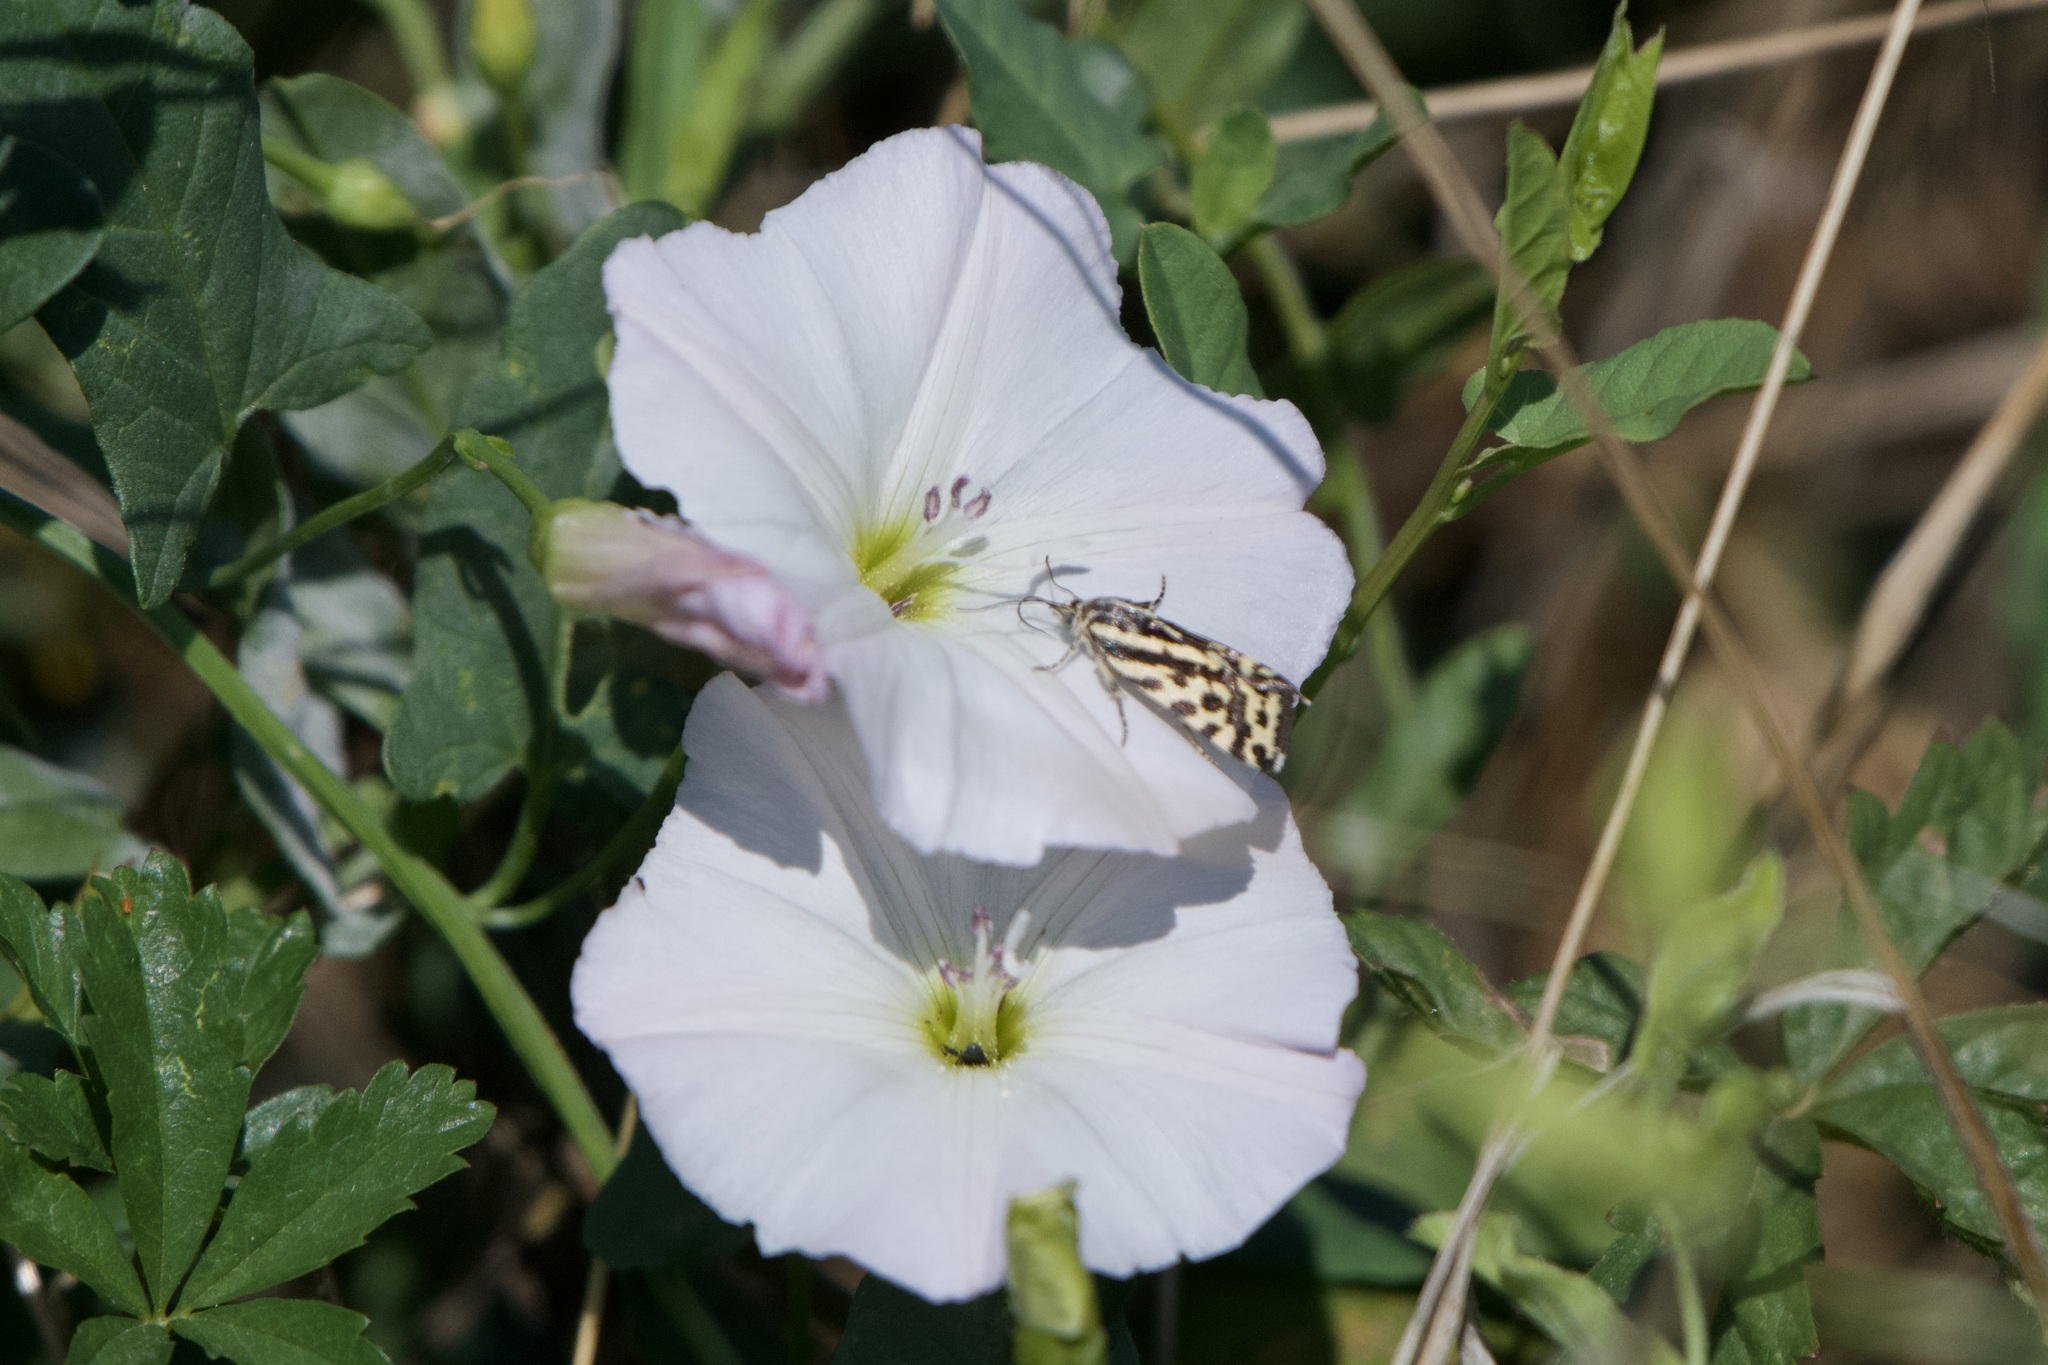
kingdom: Animalia
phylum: Arthropoda
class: Insecta
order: Lepidoptera
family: Noctuidae
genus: Acontia
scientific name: Acontia trabealis
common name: Spotted sulphur
